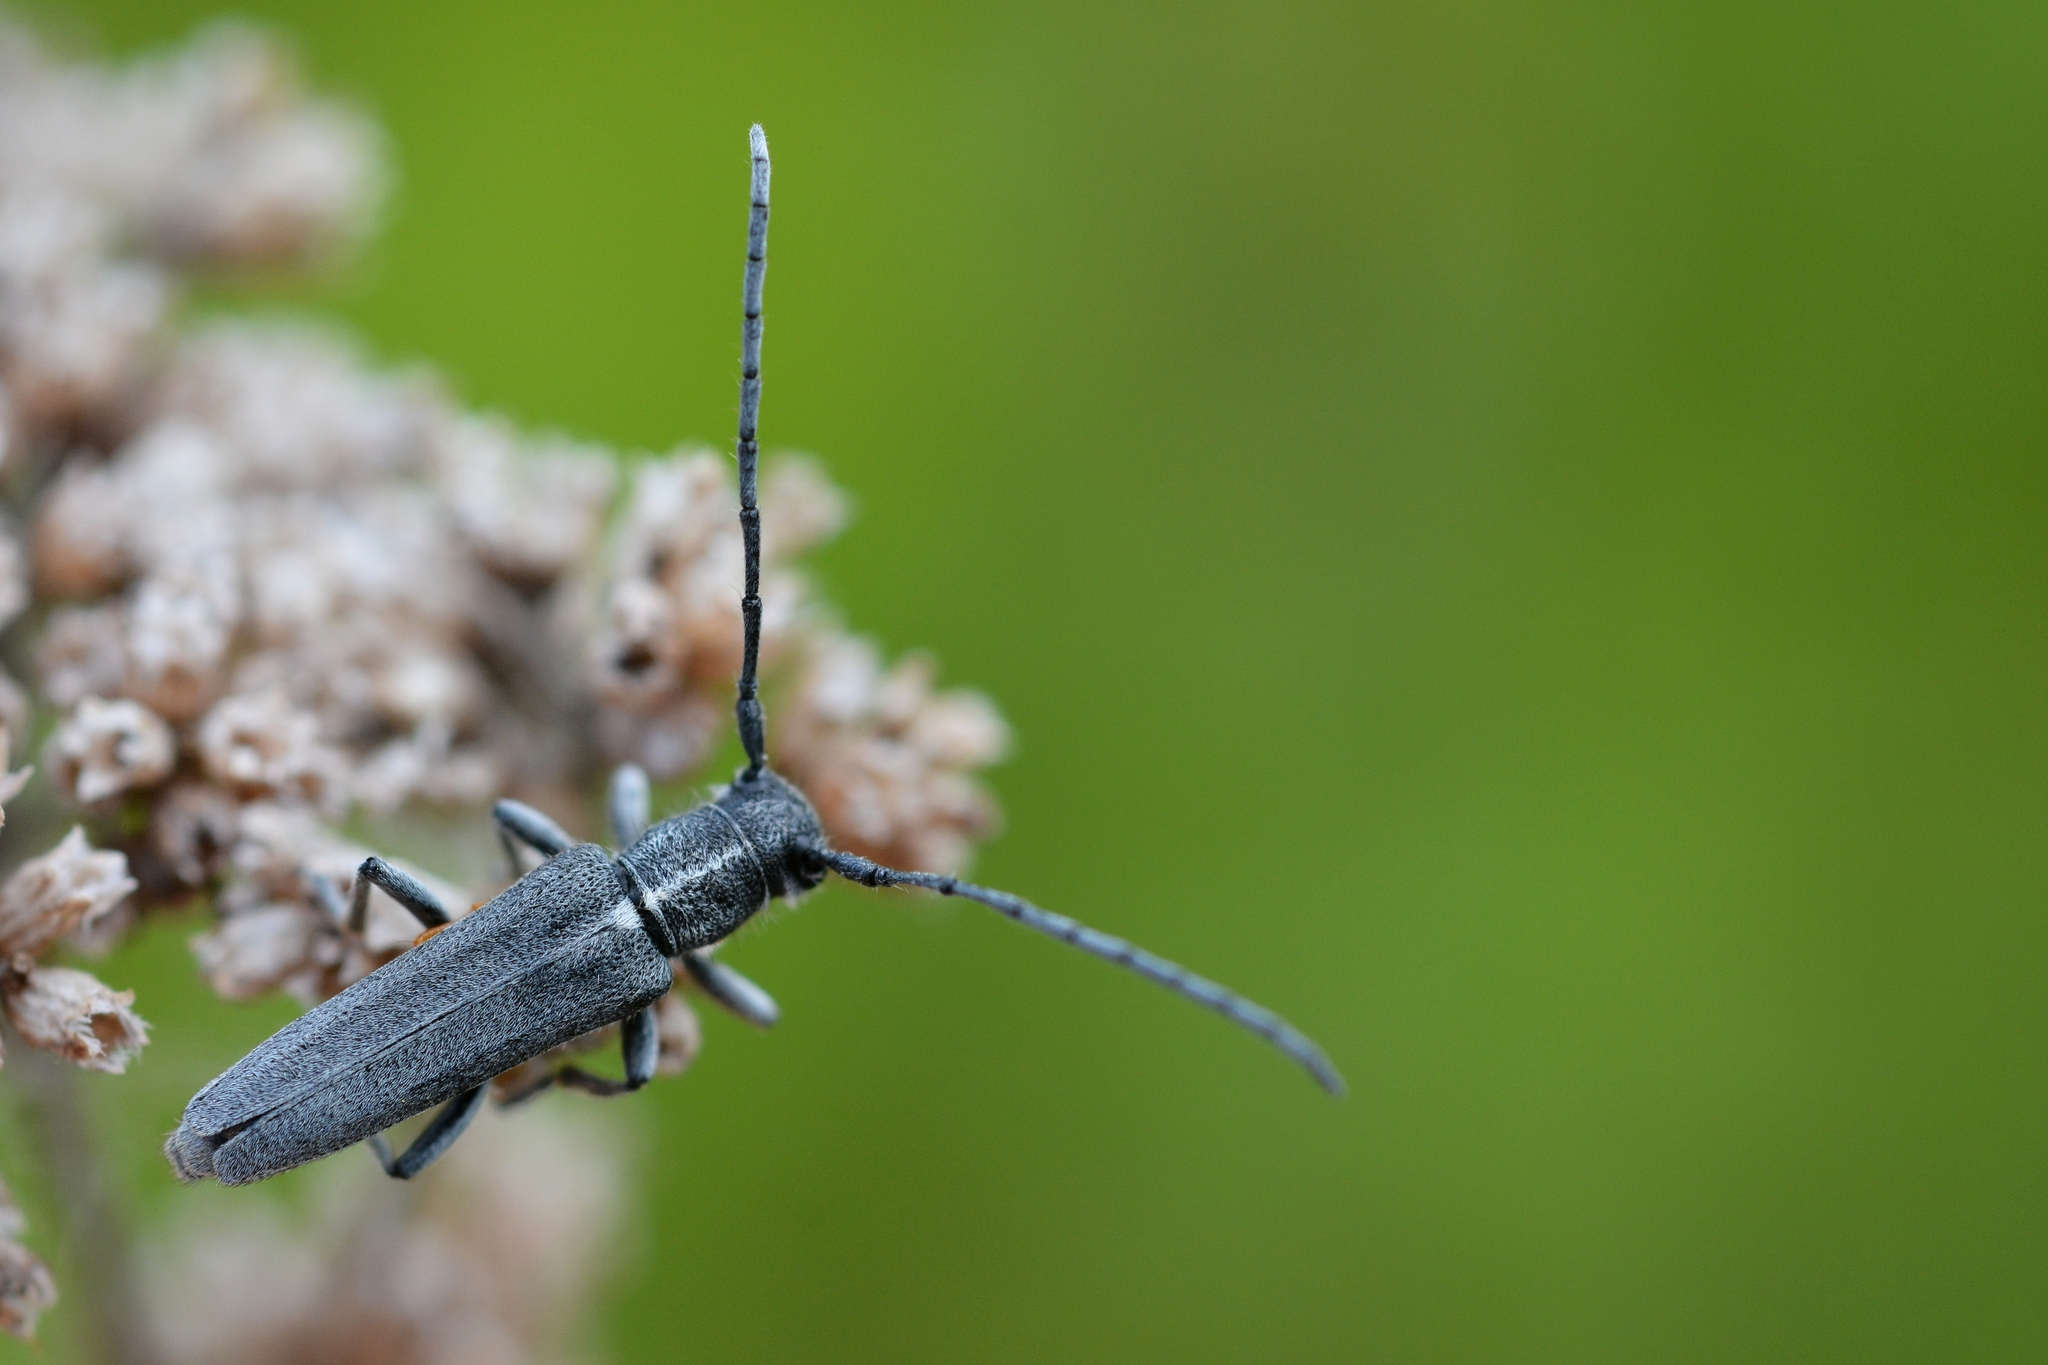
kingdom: Animalia
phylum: Arthropoda
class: Insecta
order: Coleoptera
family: Cerambycidae
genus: Phytoecia
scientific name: Phytoecia nigricornis
